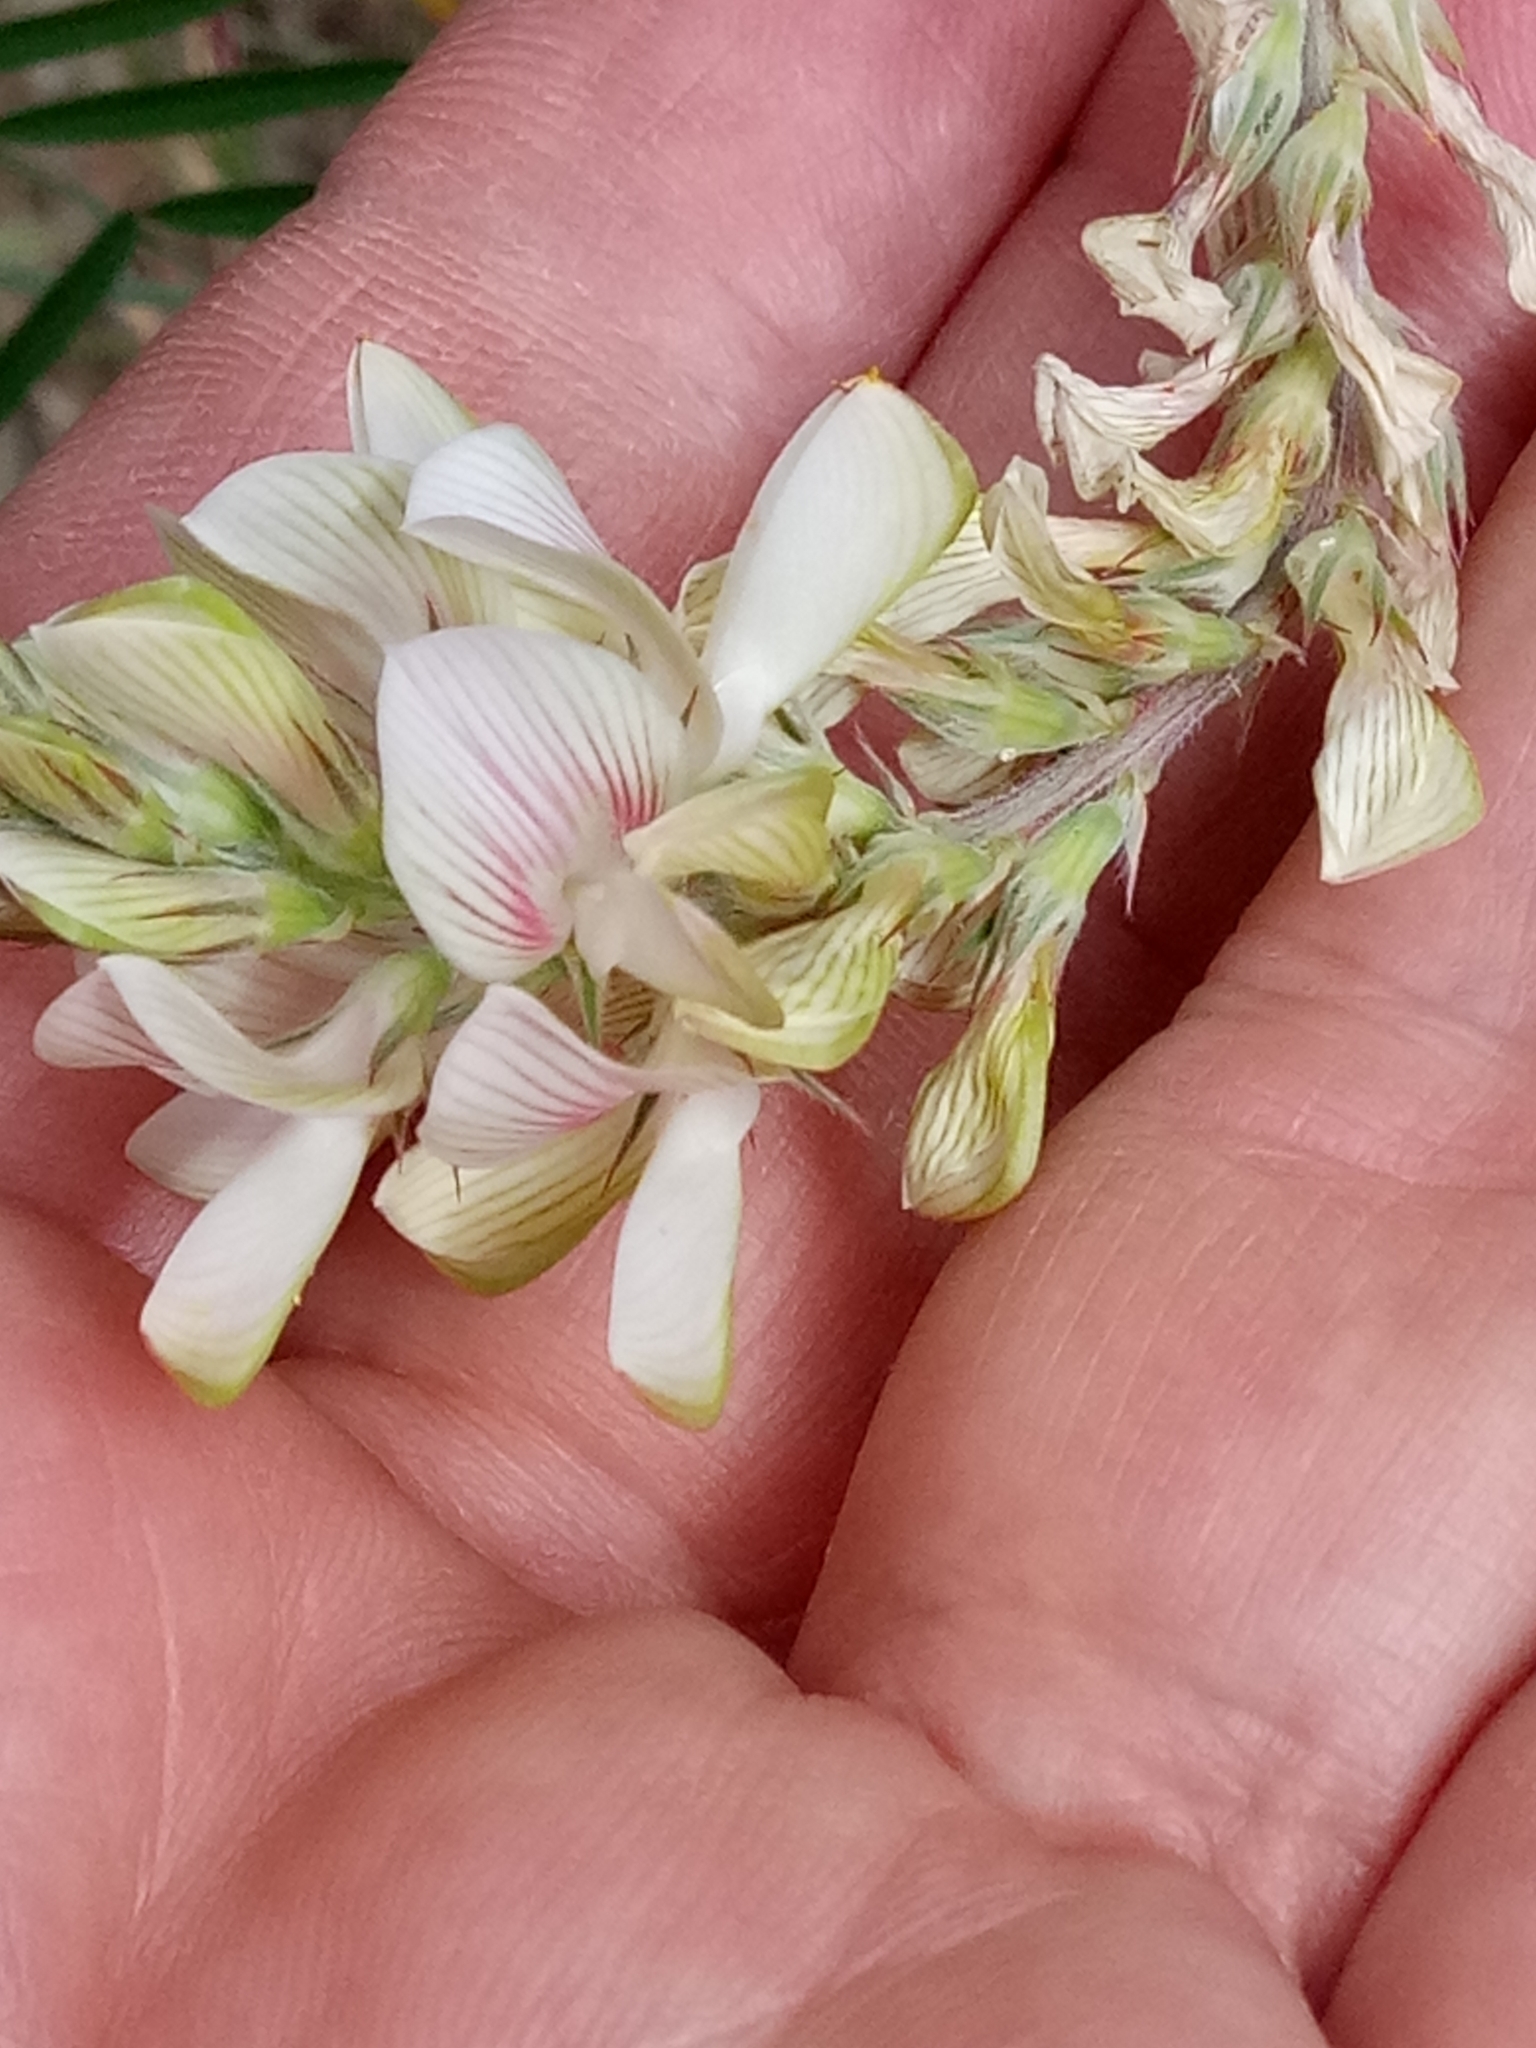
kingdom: Plantae
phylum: Tracheophyta
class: Magnoliopsida
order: Fabales
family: Fabaceae
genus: Onobrychis
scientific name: Onobrychis alba
